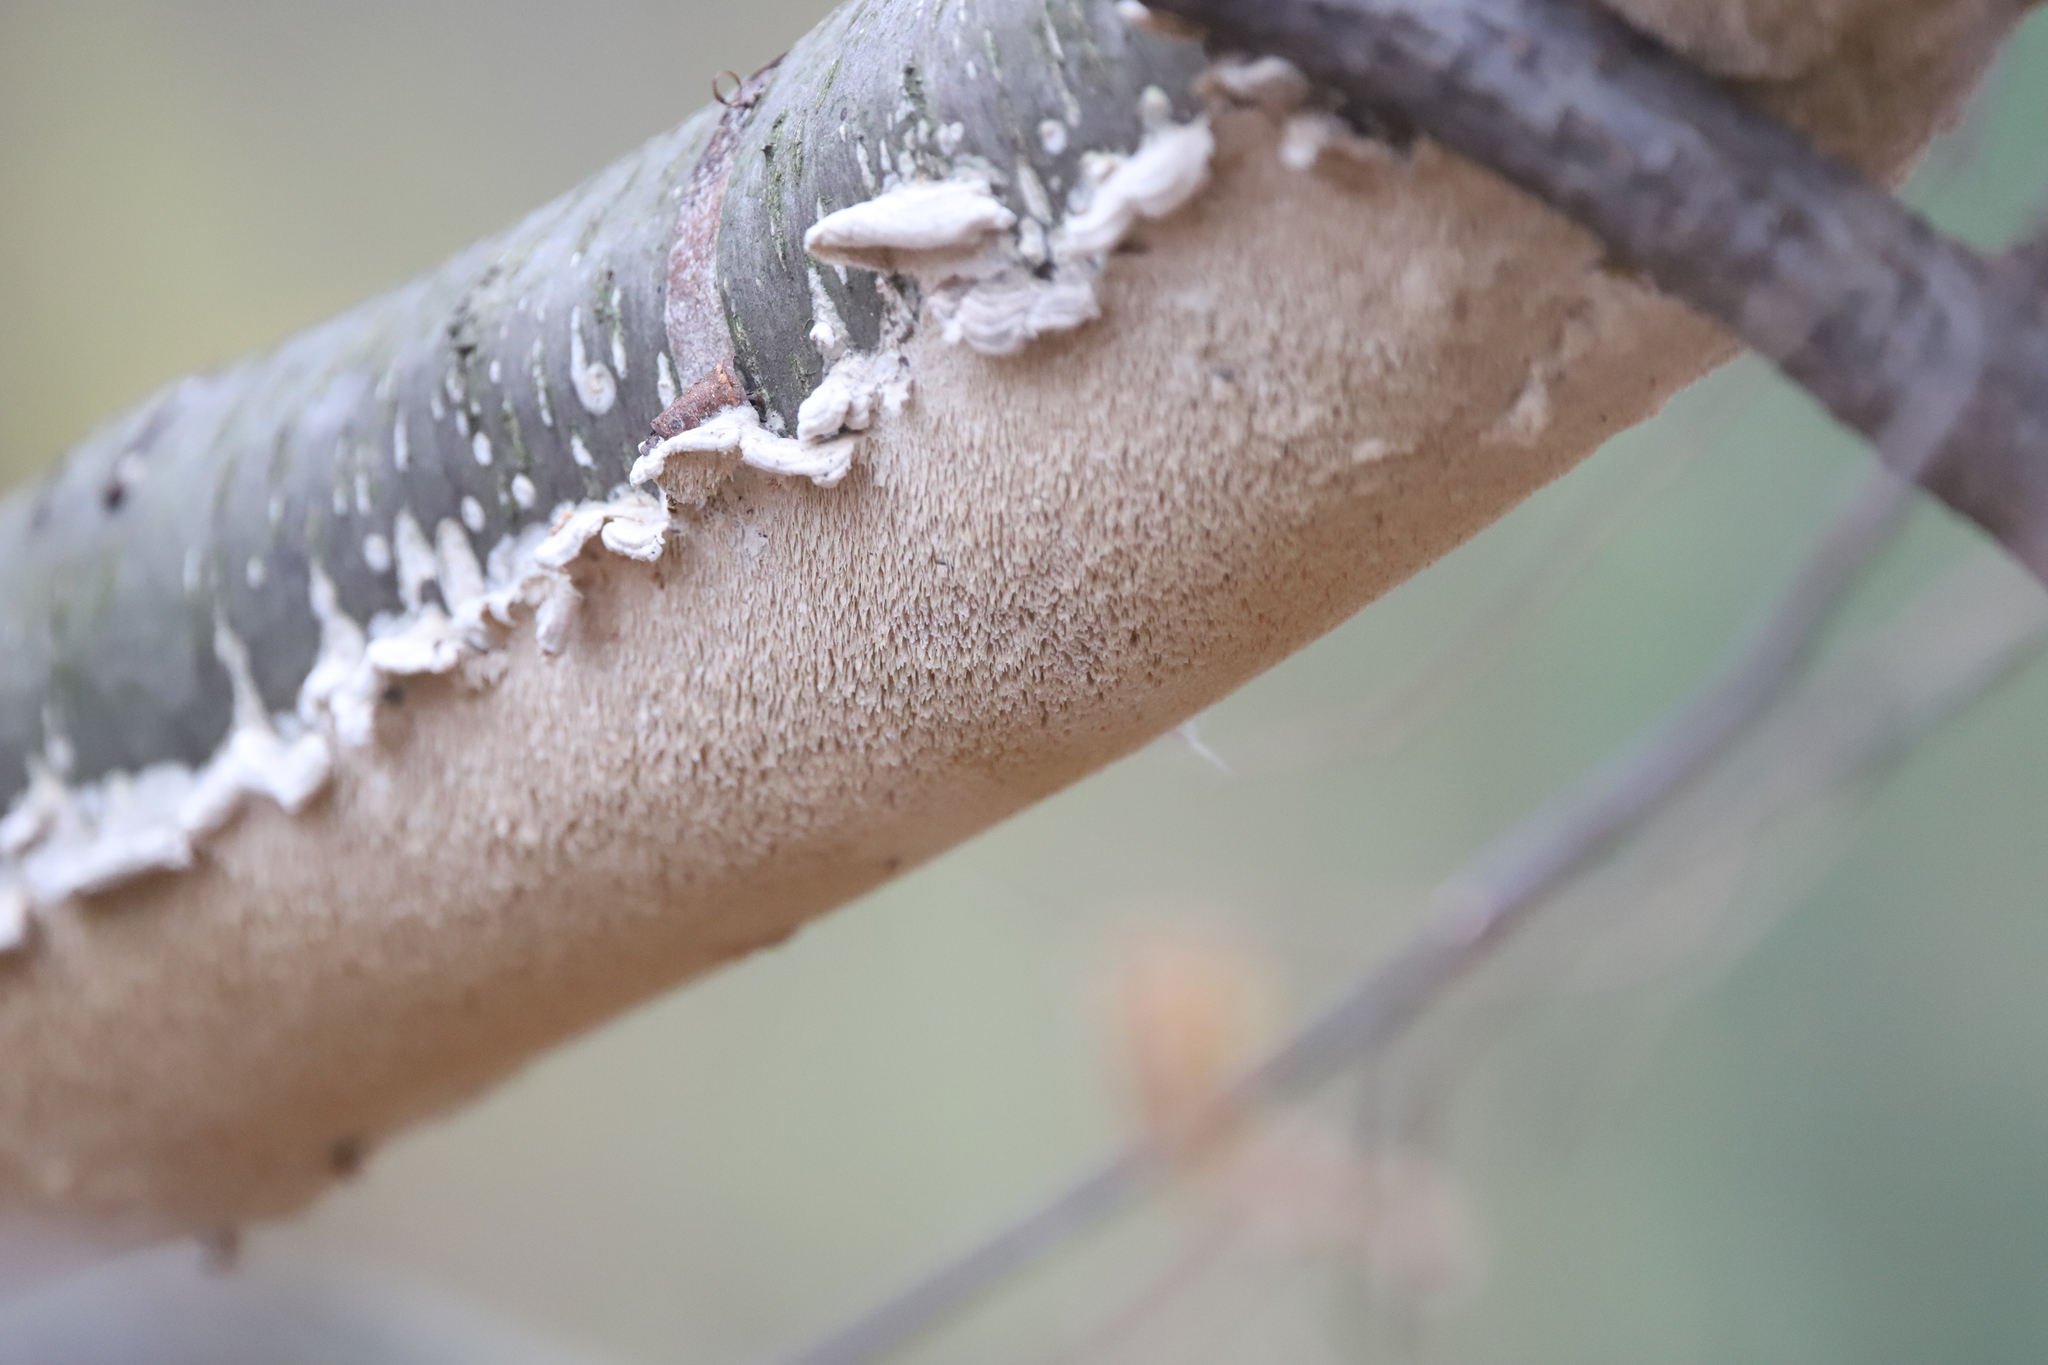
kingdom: Fungi
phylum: Basidiomycota
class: Agaricomycetes
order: Polyporales
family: Irpicaceae
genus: Irpex
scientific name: Irpex lacteus
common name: Milk-white toothed polypore
